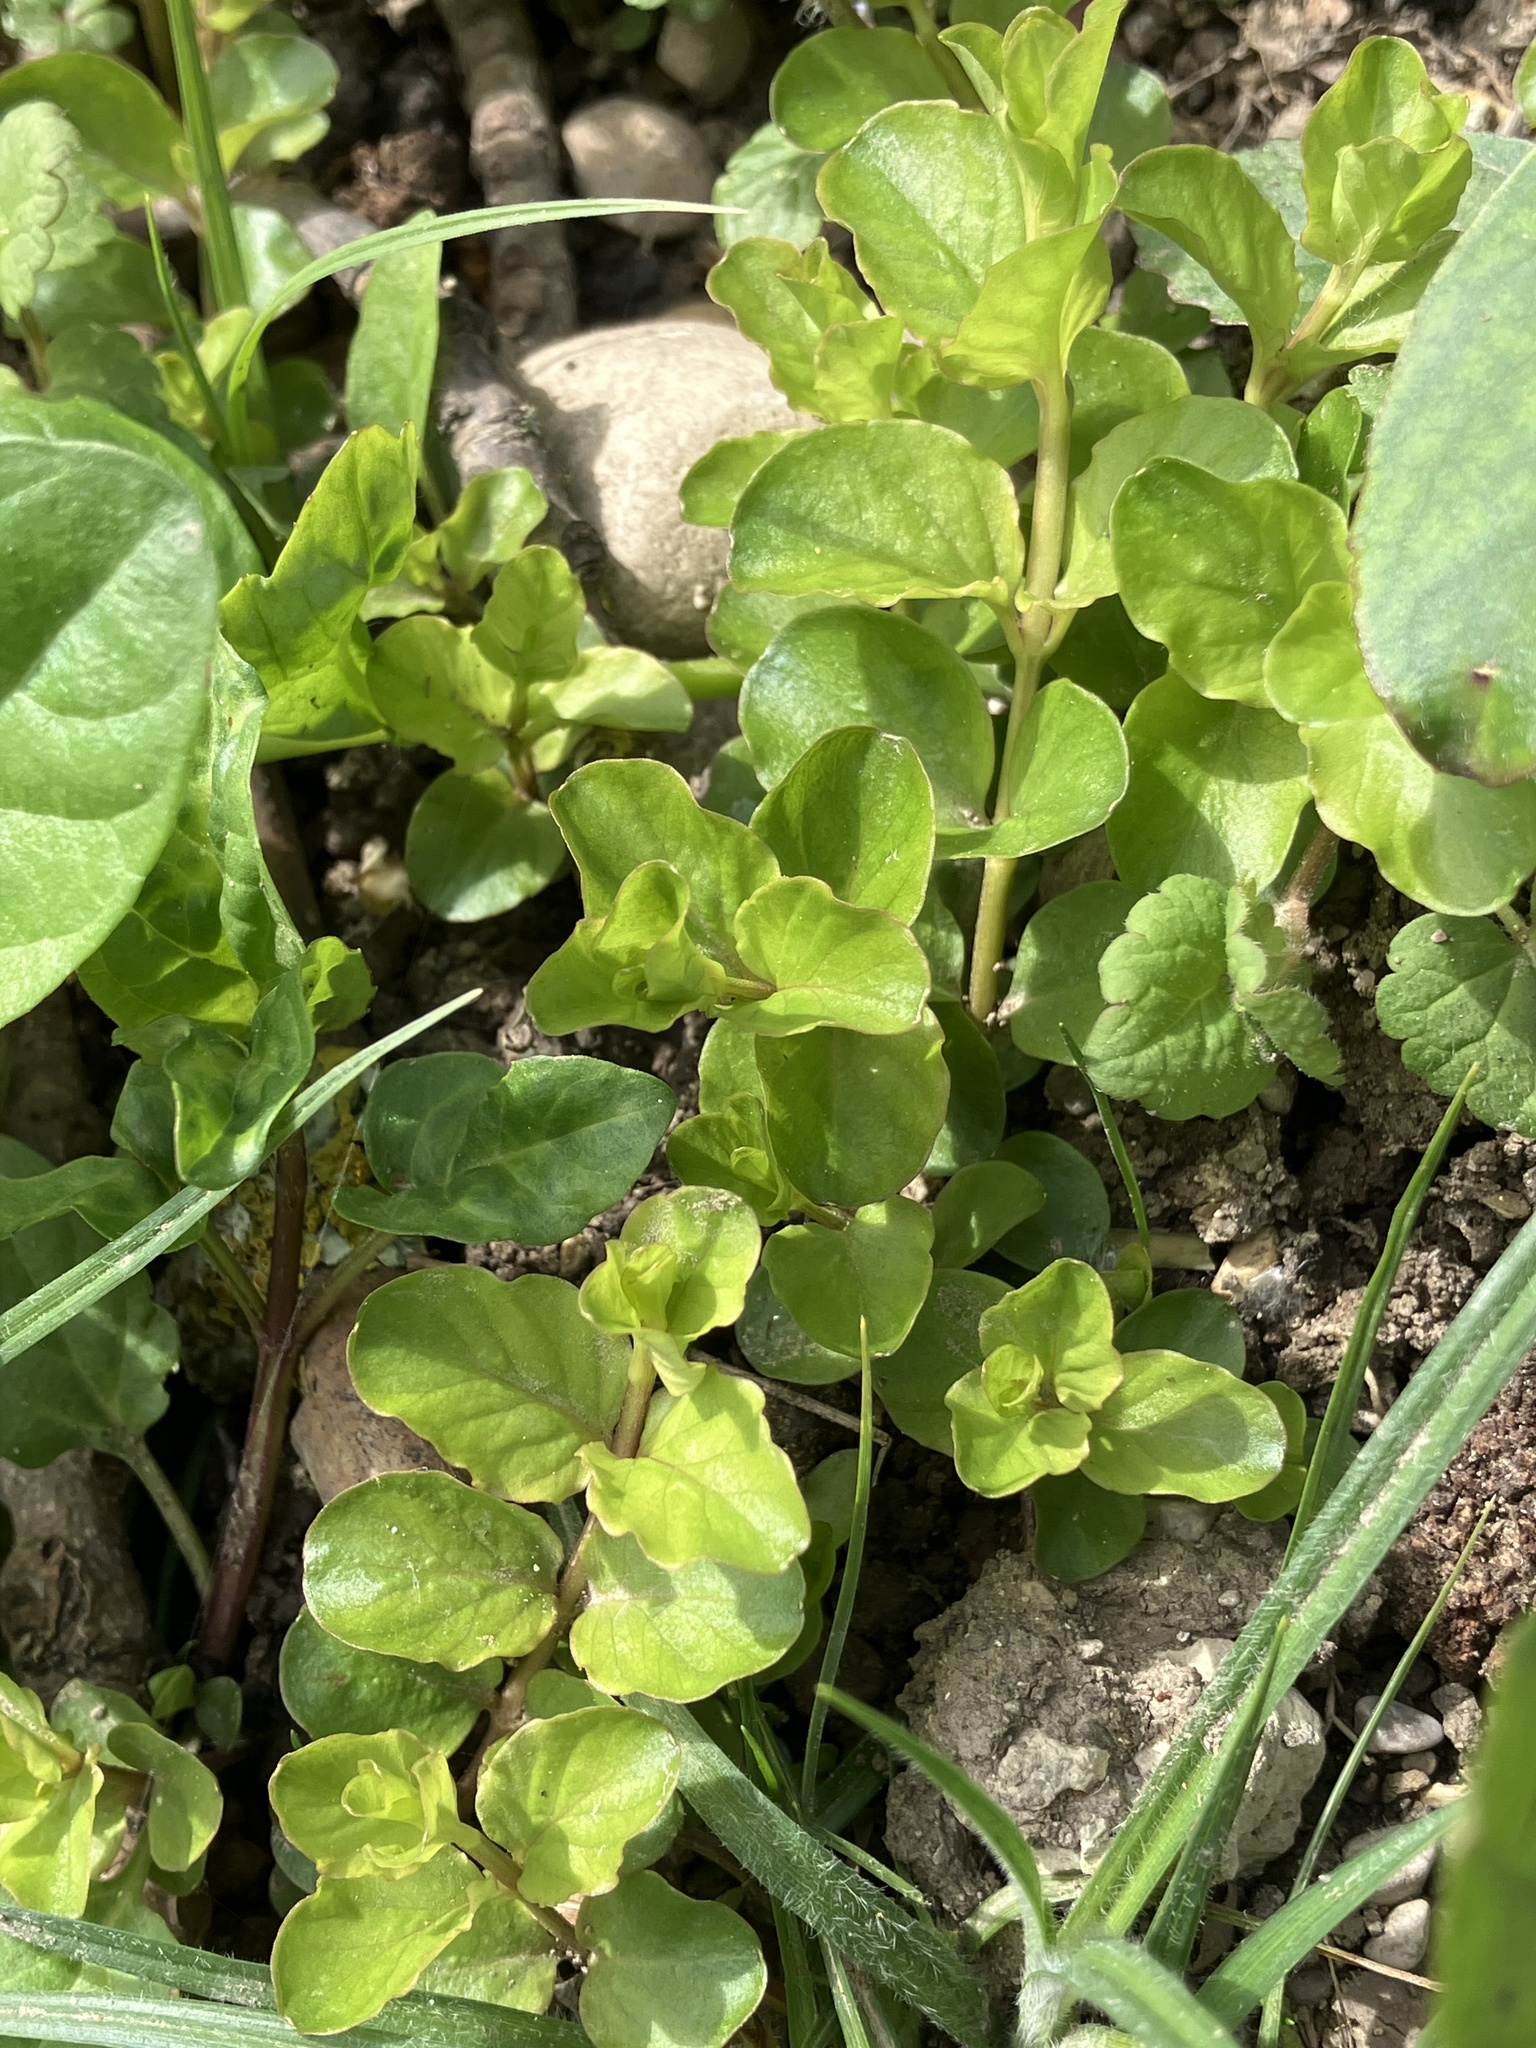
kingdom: Plantae
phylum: Tracheophyta
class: Magnoliopsida
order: Ericales
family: Primulaceae
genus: Lysimachia
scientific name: Lysimachia nummularia
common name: Moneywort
